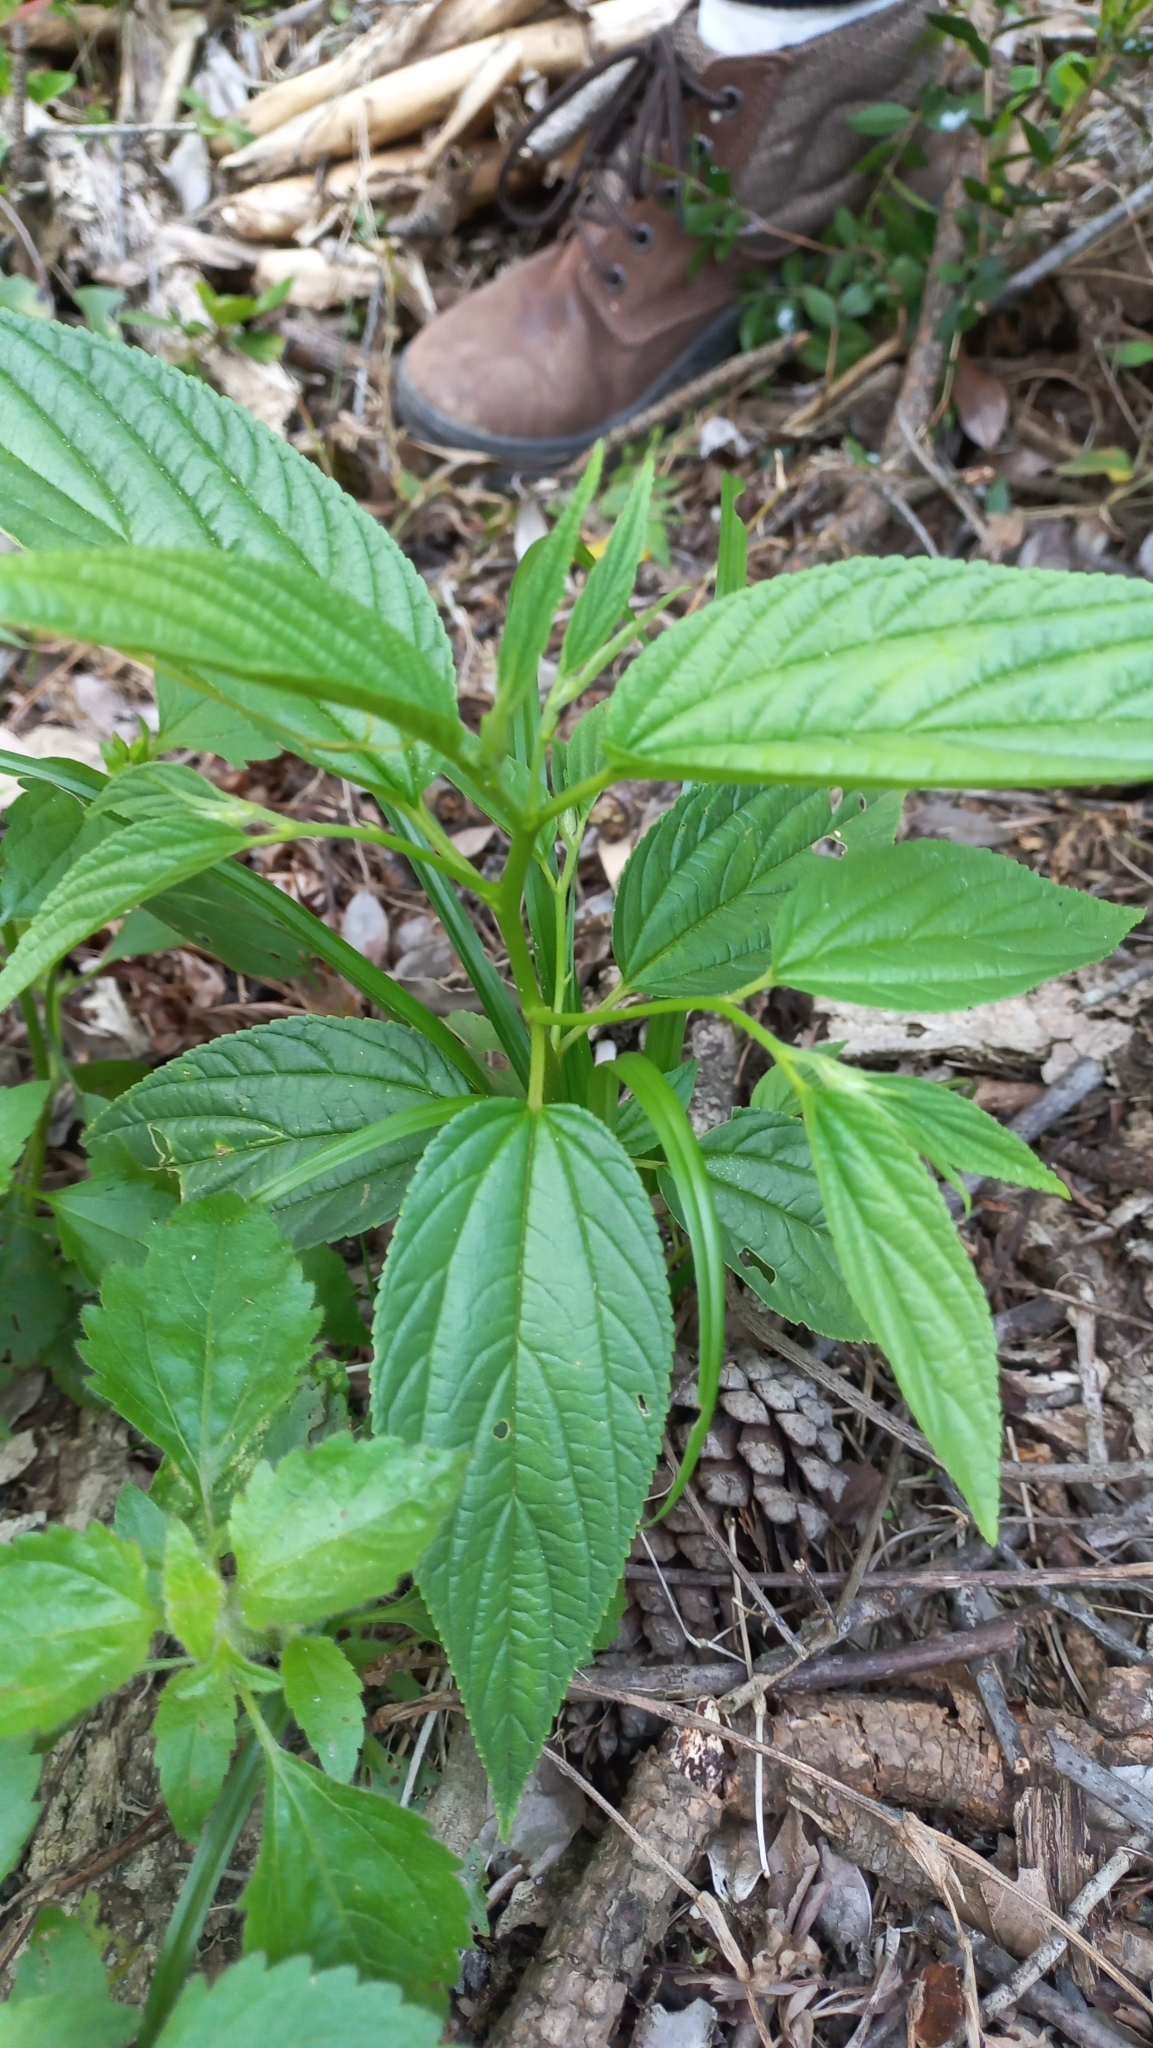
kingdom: Plantae
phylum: Tracheophyta
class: Magnoliopsida
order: Rosales
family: Cannabaceae
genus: Trema
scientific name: Trema micranthum
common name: Jamaican nettletree
